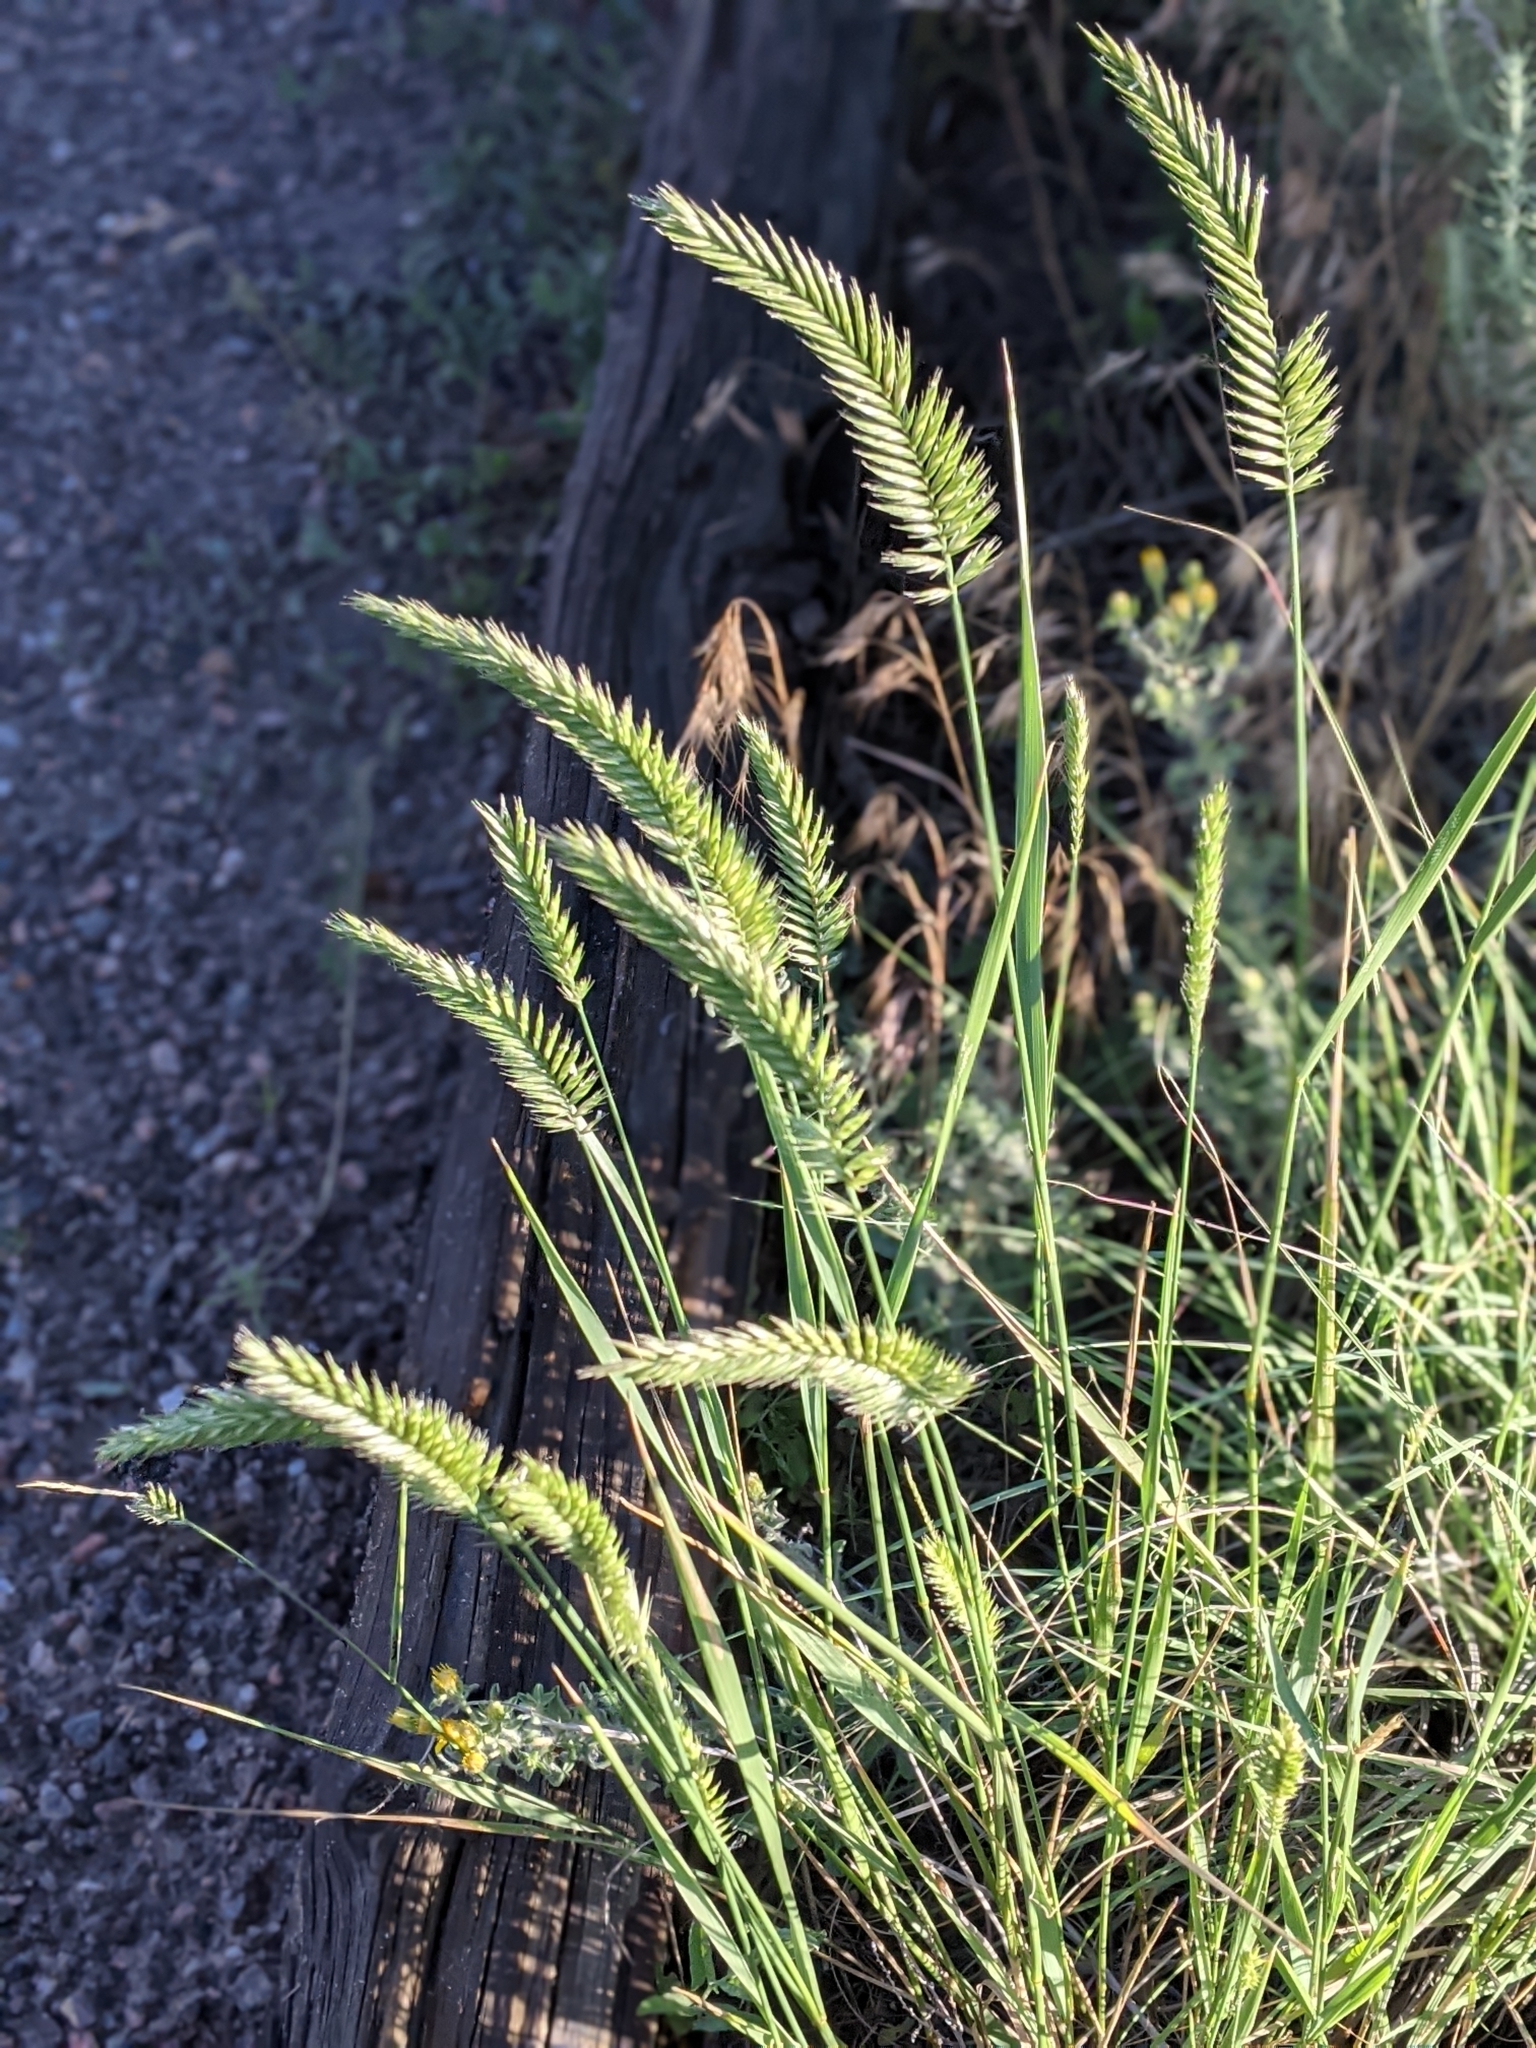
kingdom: Plantae
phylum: Tracheophyta
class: Liliopsida
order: Poales
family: Poaceae
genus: Agropyron
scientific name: Agropyron cristatum
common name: Crested wheatgrass
